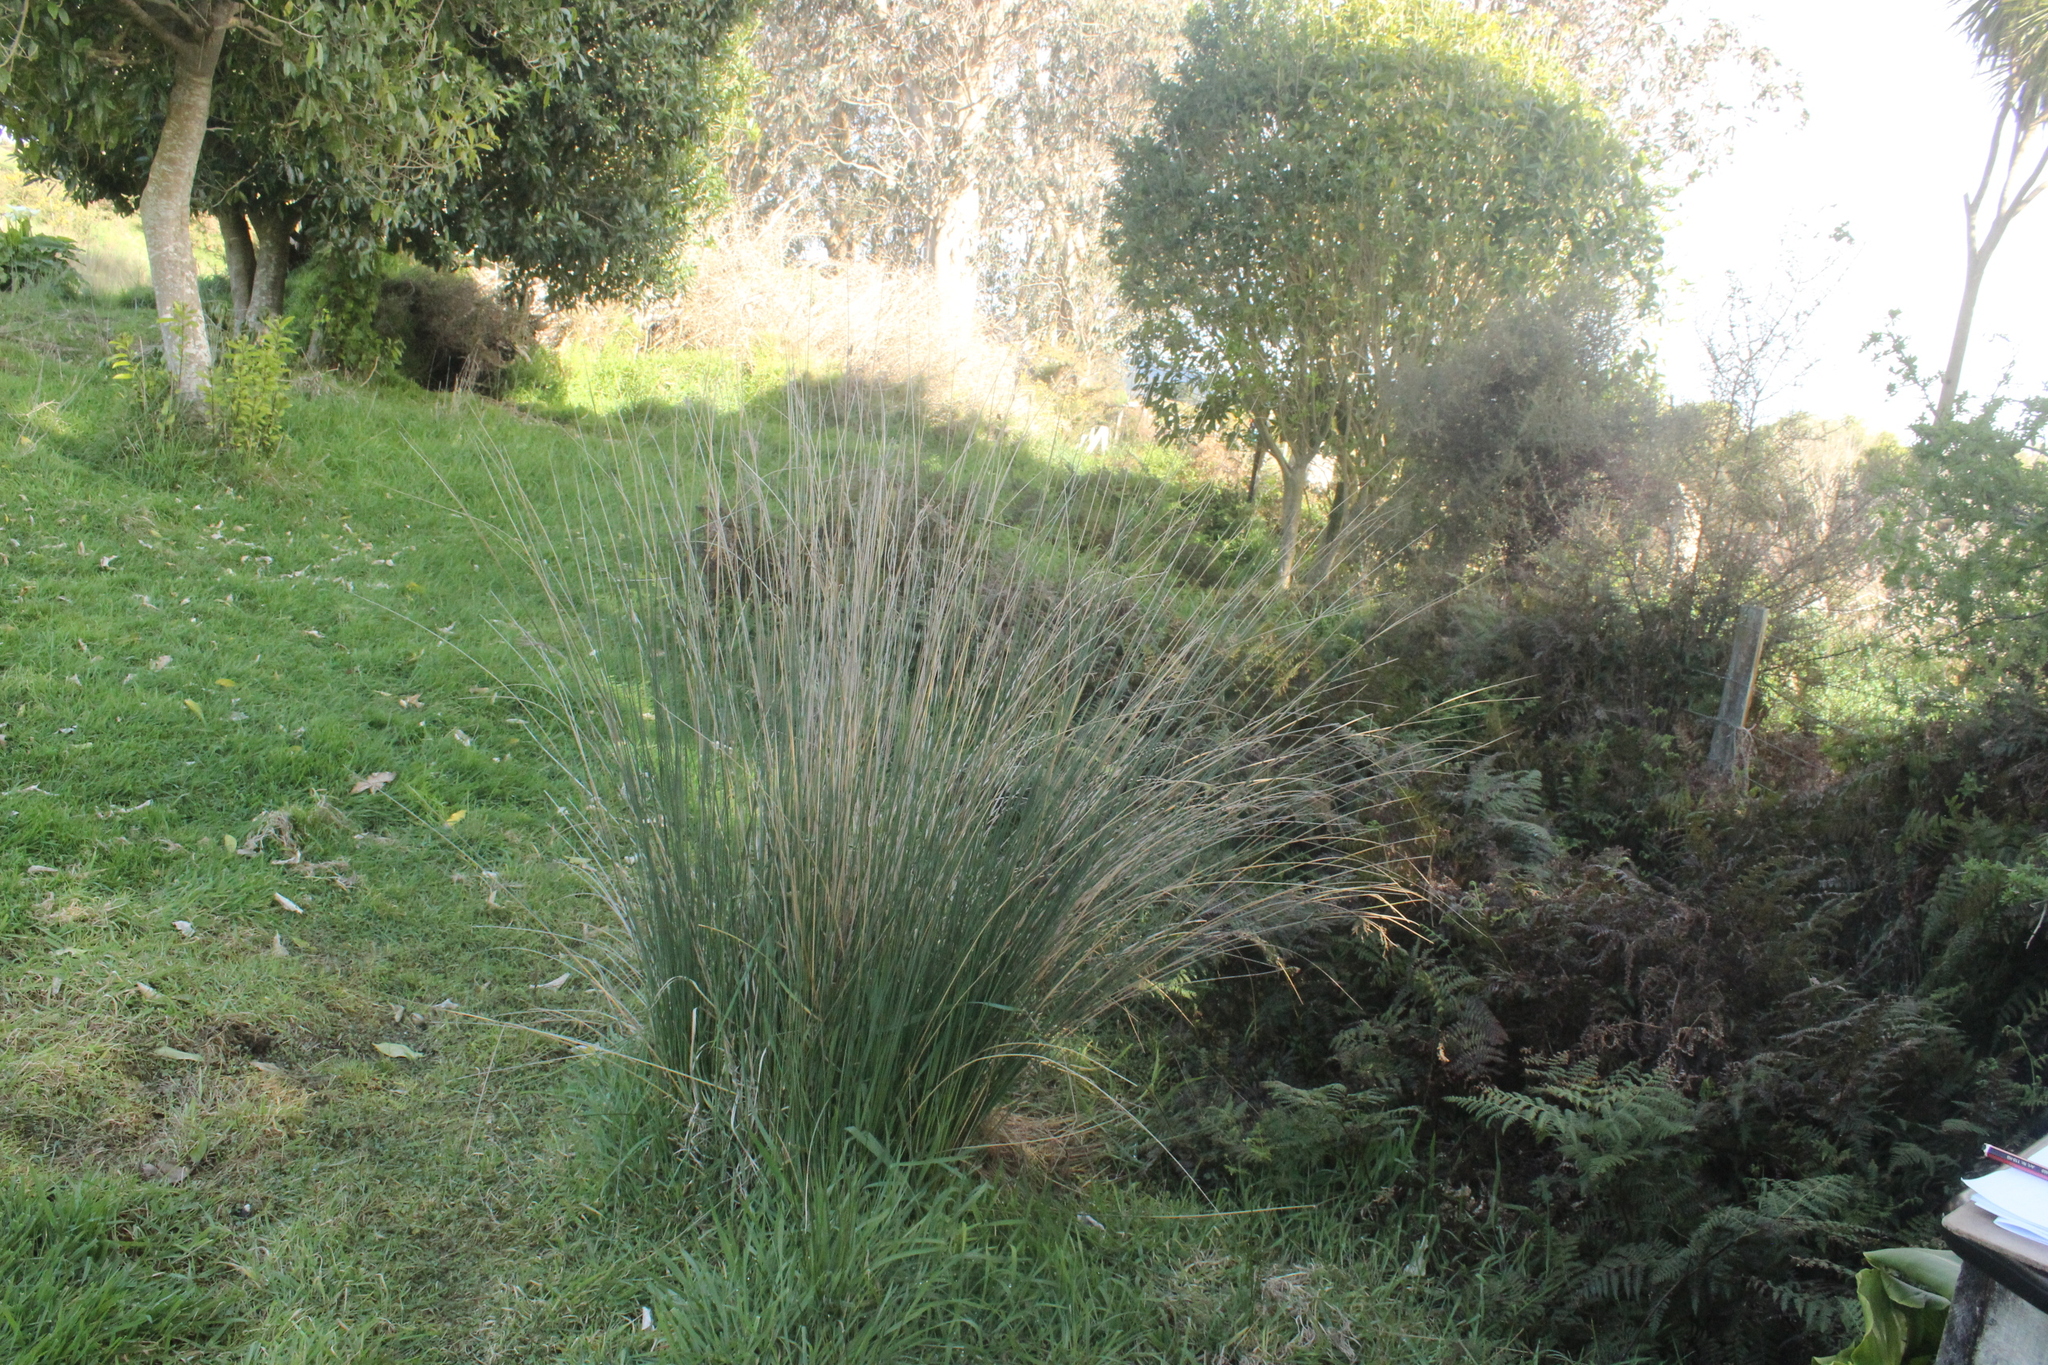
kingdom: Plantae
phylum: Tracheophyta
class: Liliopsida
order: Poales
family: Juncaceae
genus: Juncus
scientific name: Juncus sarophorus
